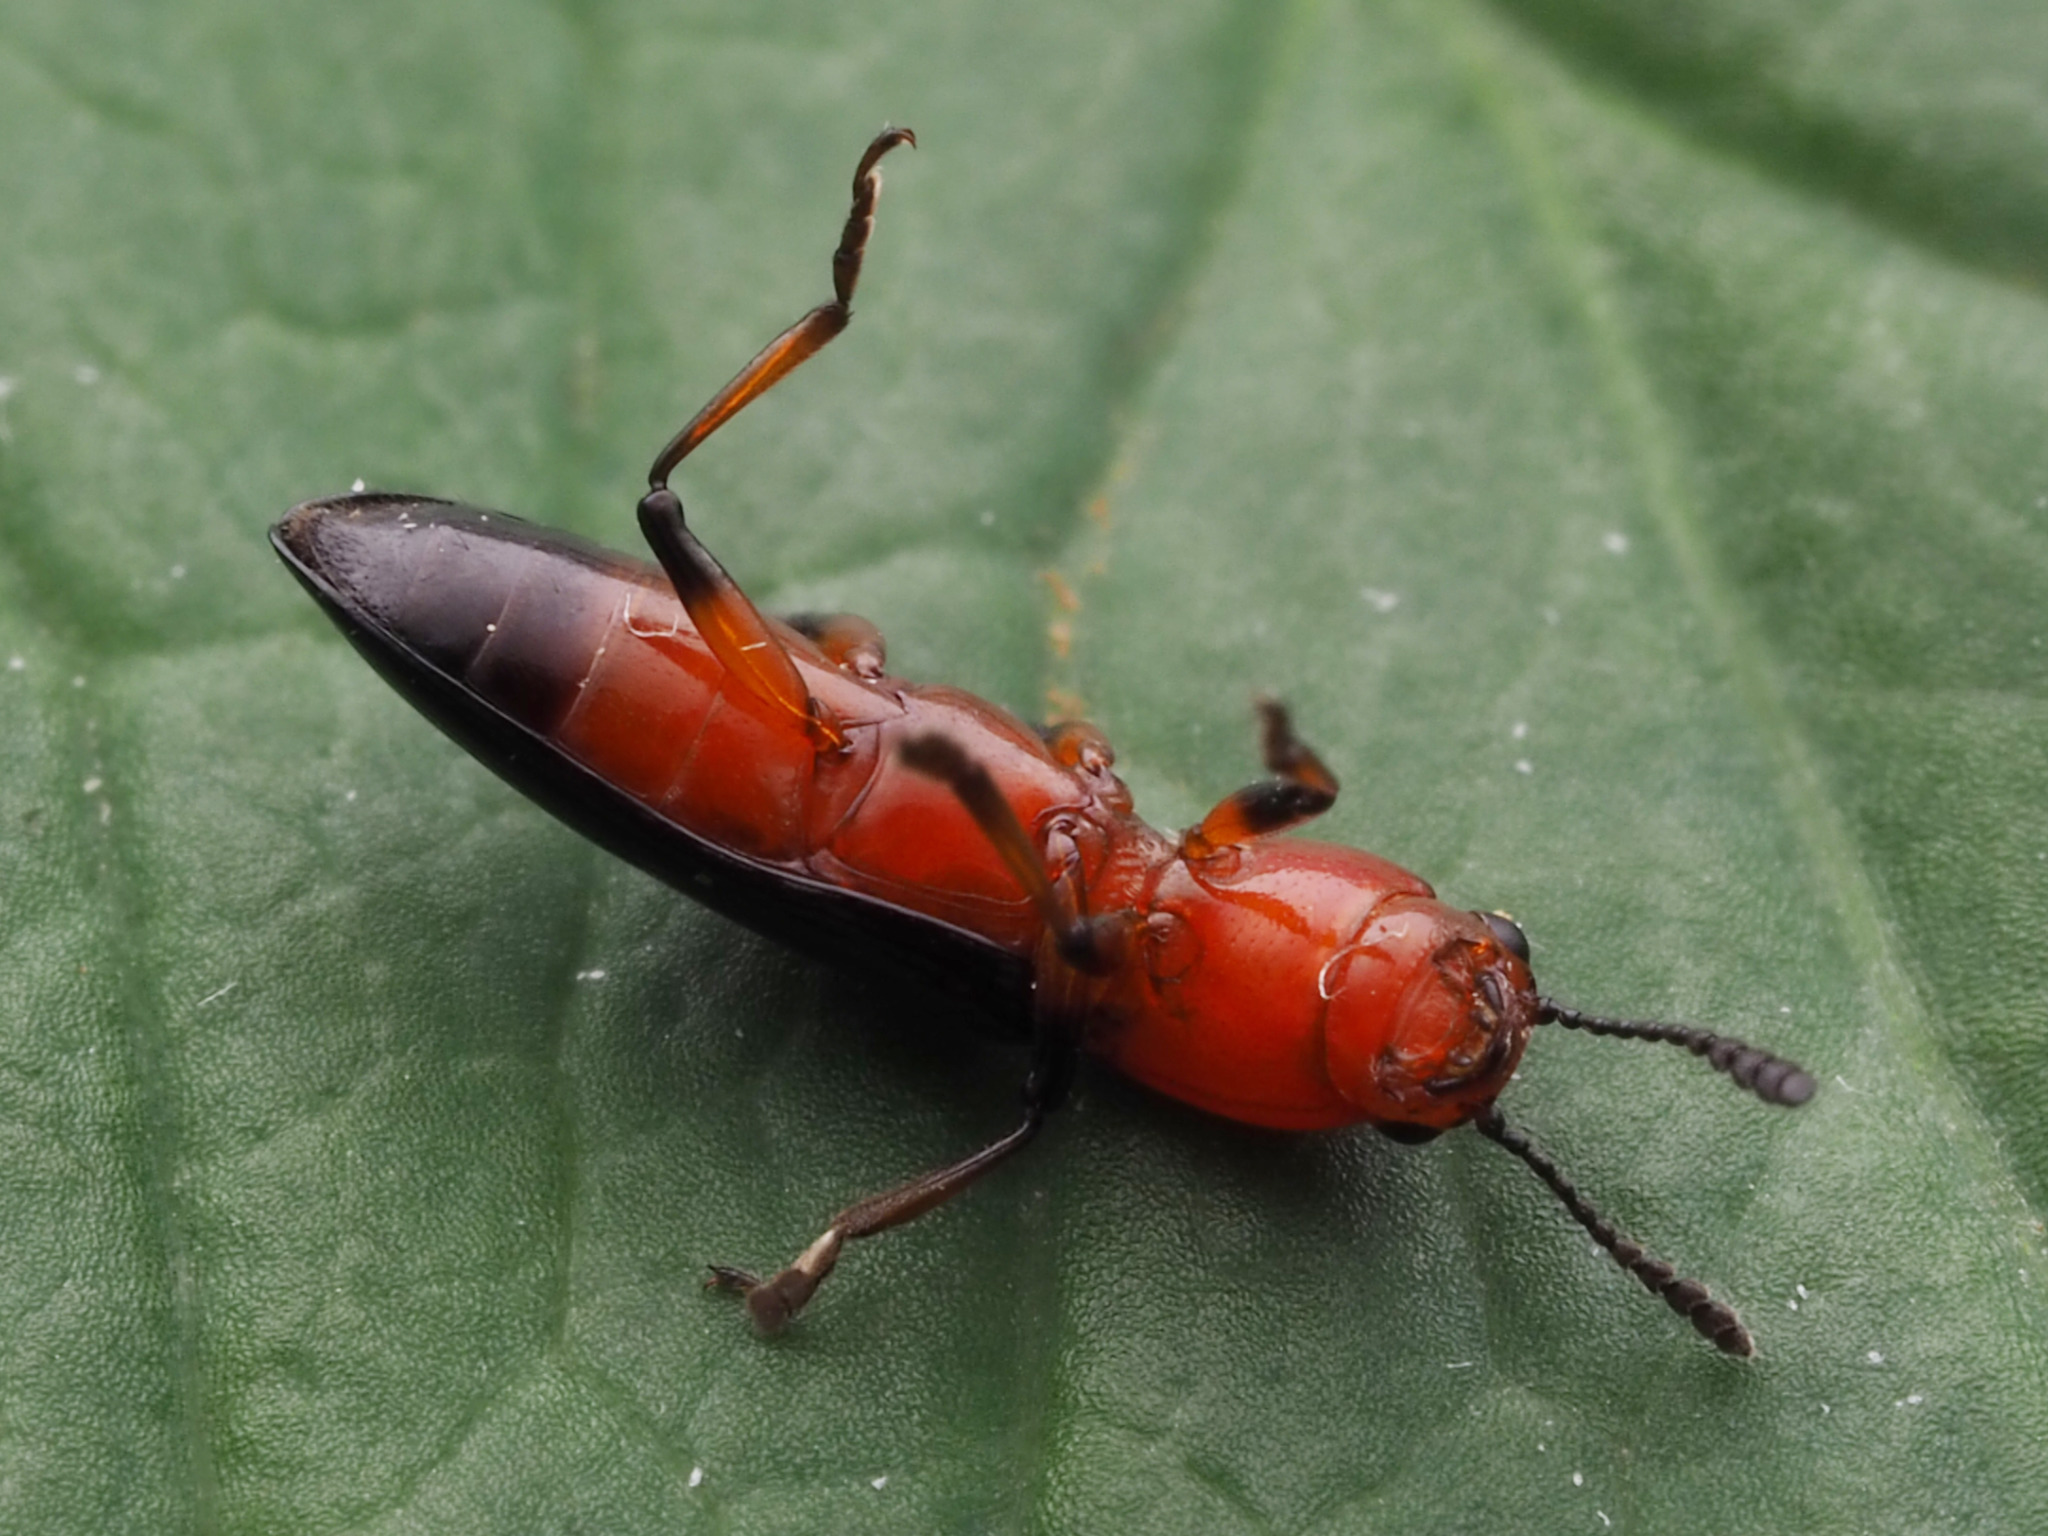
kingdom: Animalia
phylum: Arthropoda
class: Insecta
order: Coleoptera
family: Erotylidae
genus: Languria
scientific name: Languria mozardi
